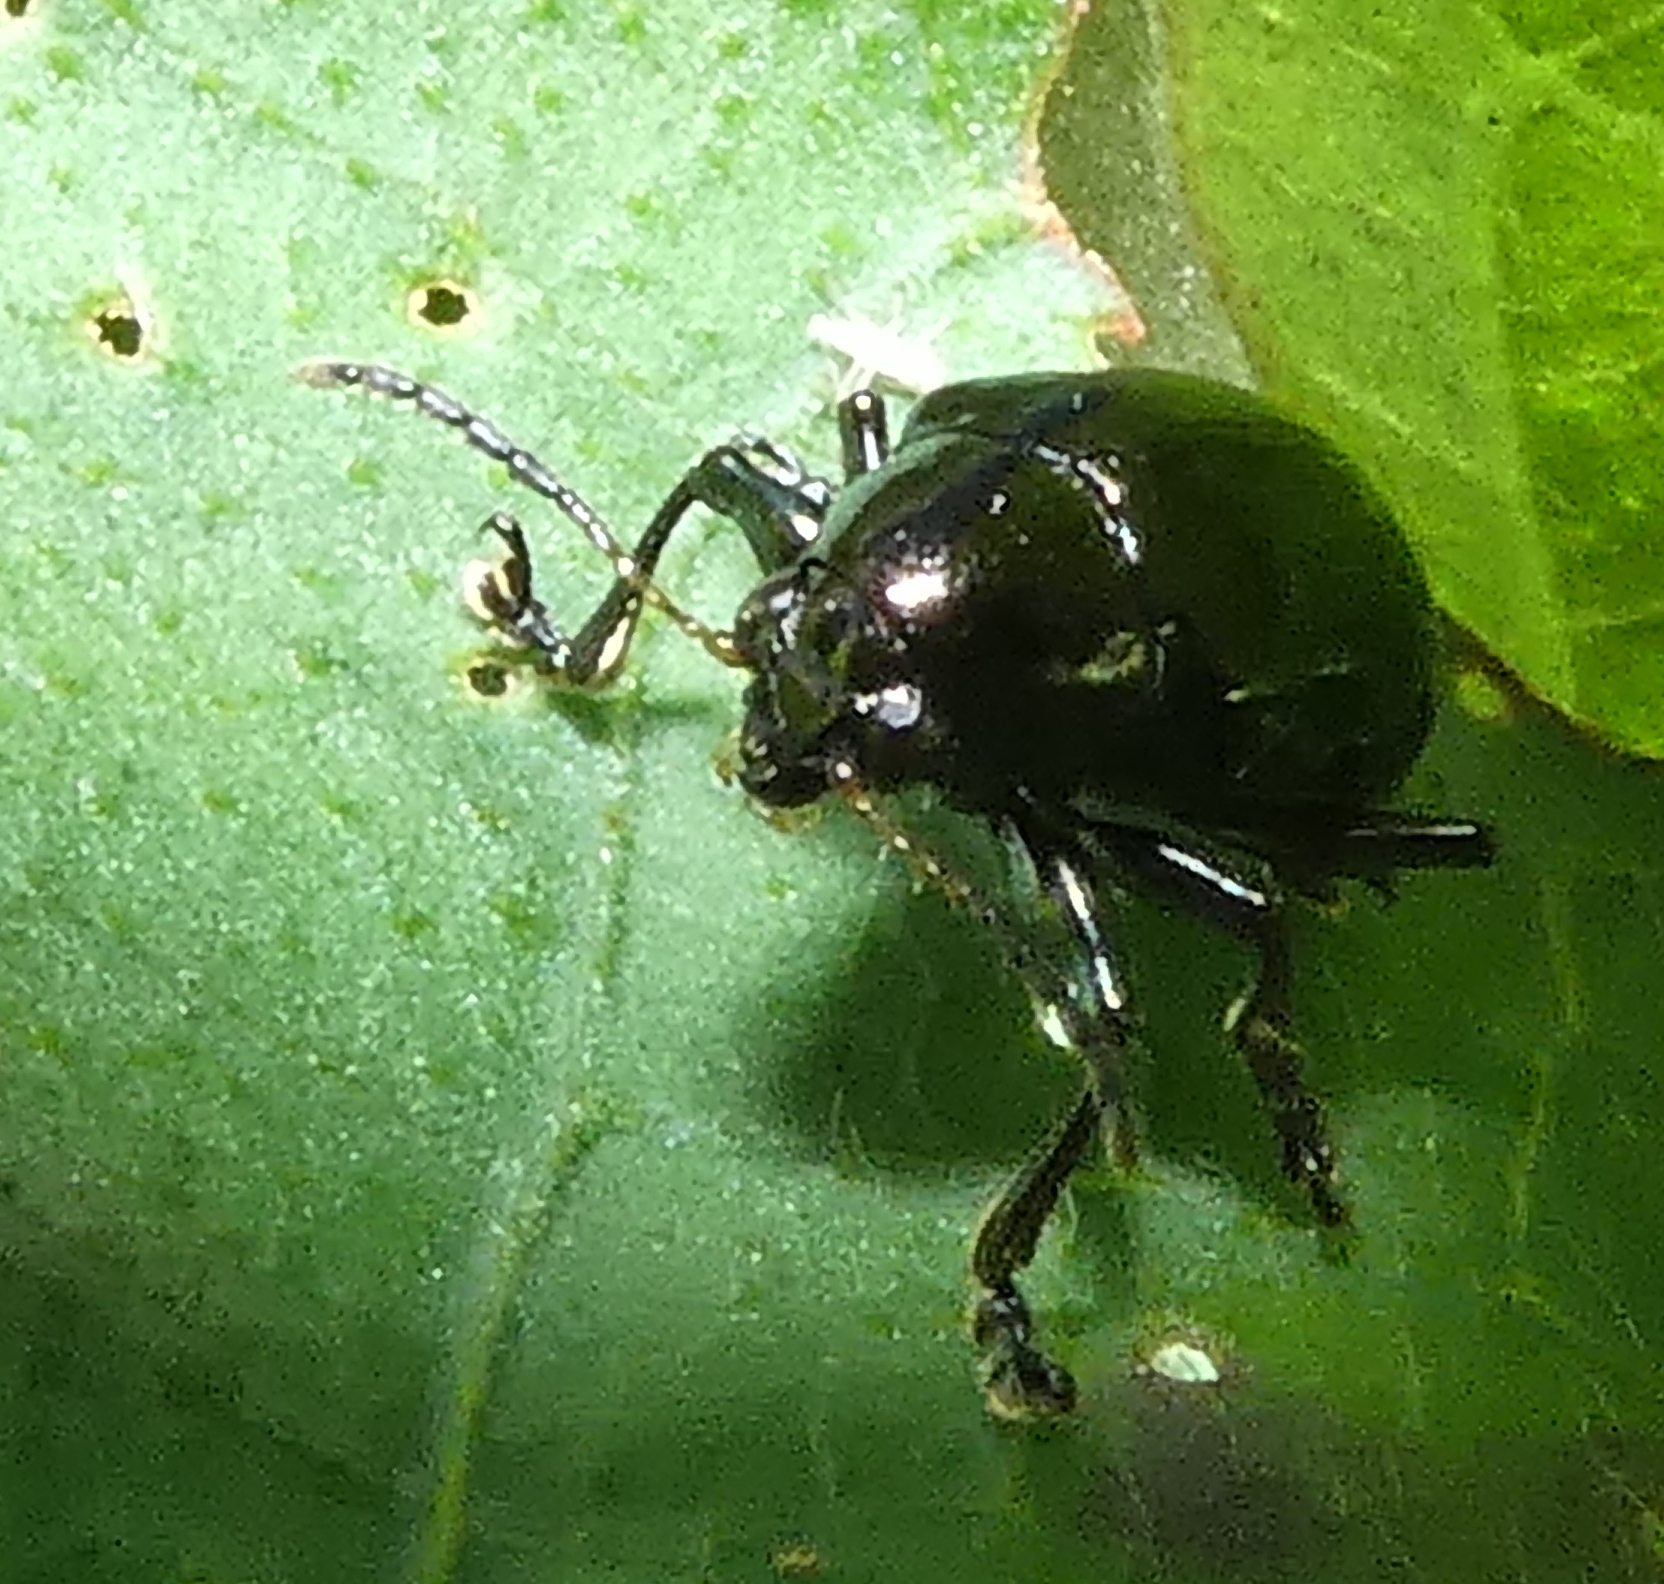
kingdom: Animalia
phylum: Arthropoda
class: Insecta
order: Coleoptera
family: Chrysomelidae
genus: Typophorus
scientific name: Typophorus nigritus
